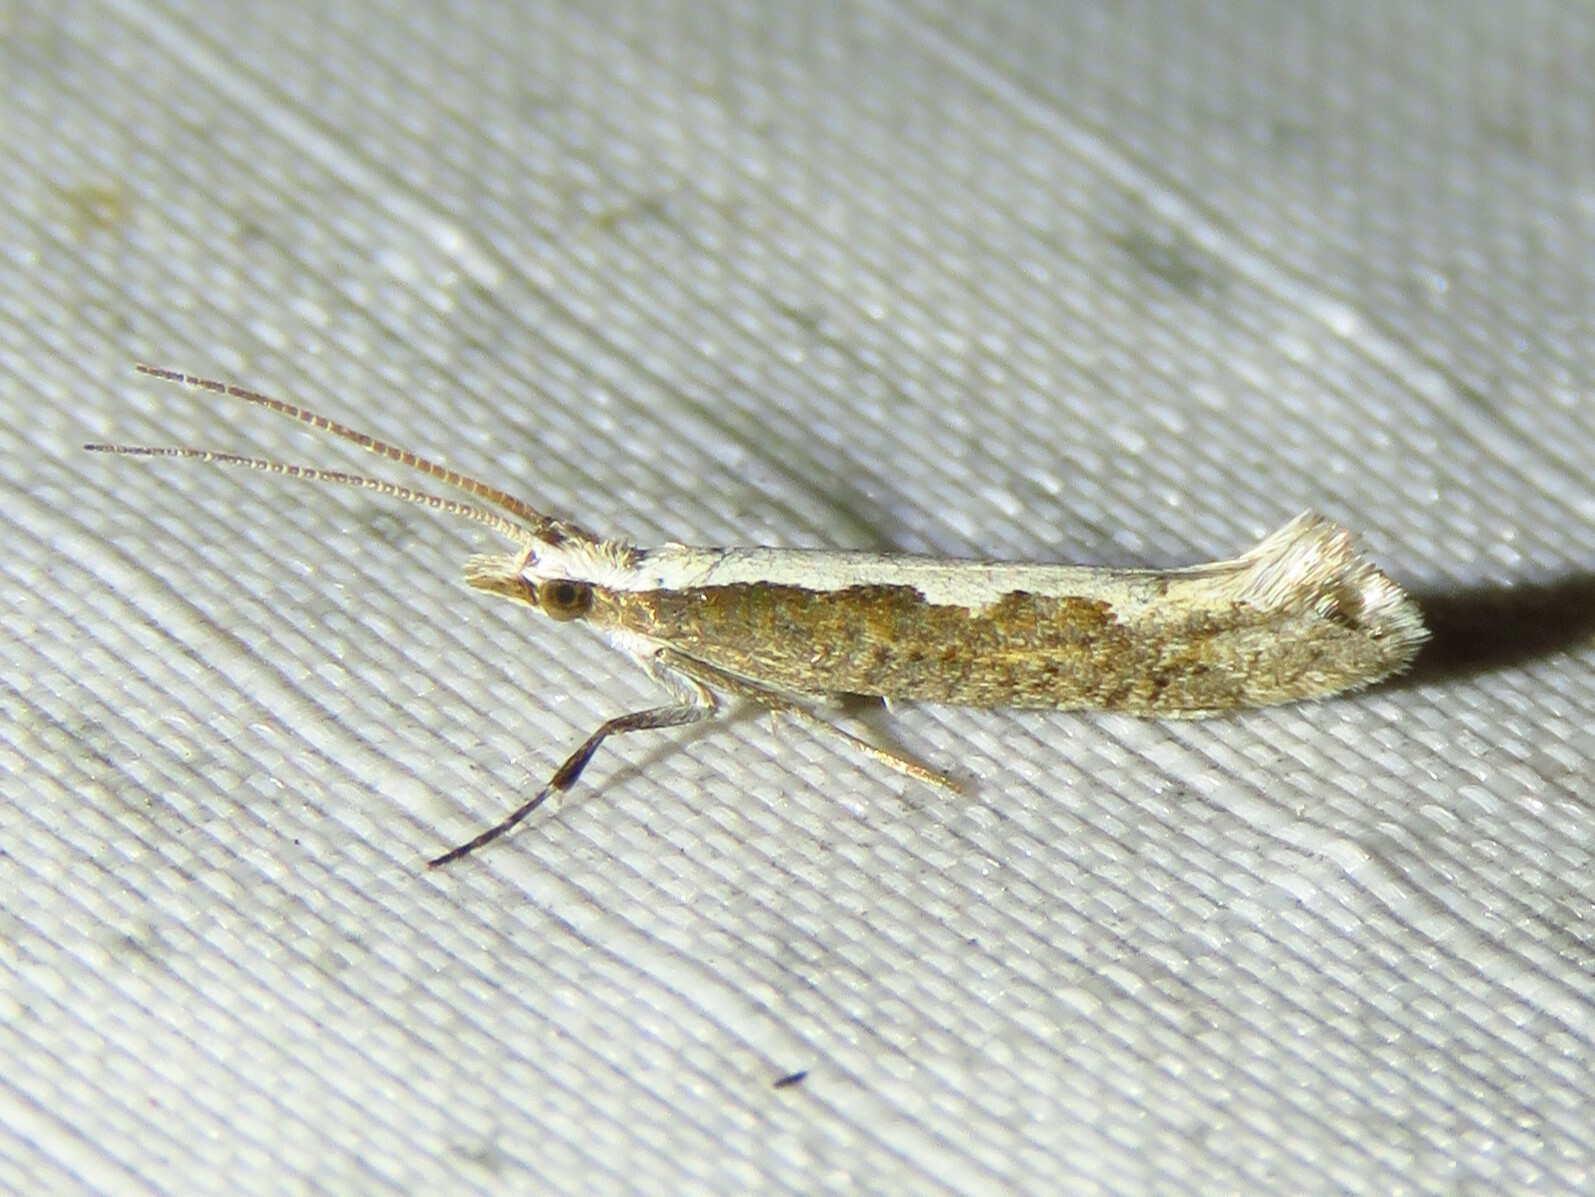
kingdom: Animalia
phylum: Arthropoda
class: Insecta
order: Lepidoptera
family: Plutellidae
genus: Plutella
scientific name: Plutella xylostella
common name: Diamond-back moth
